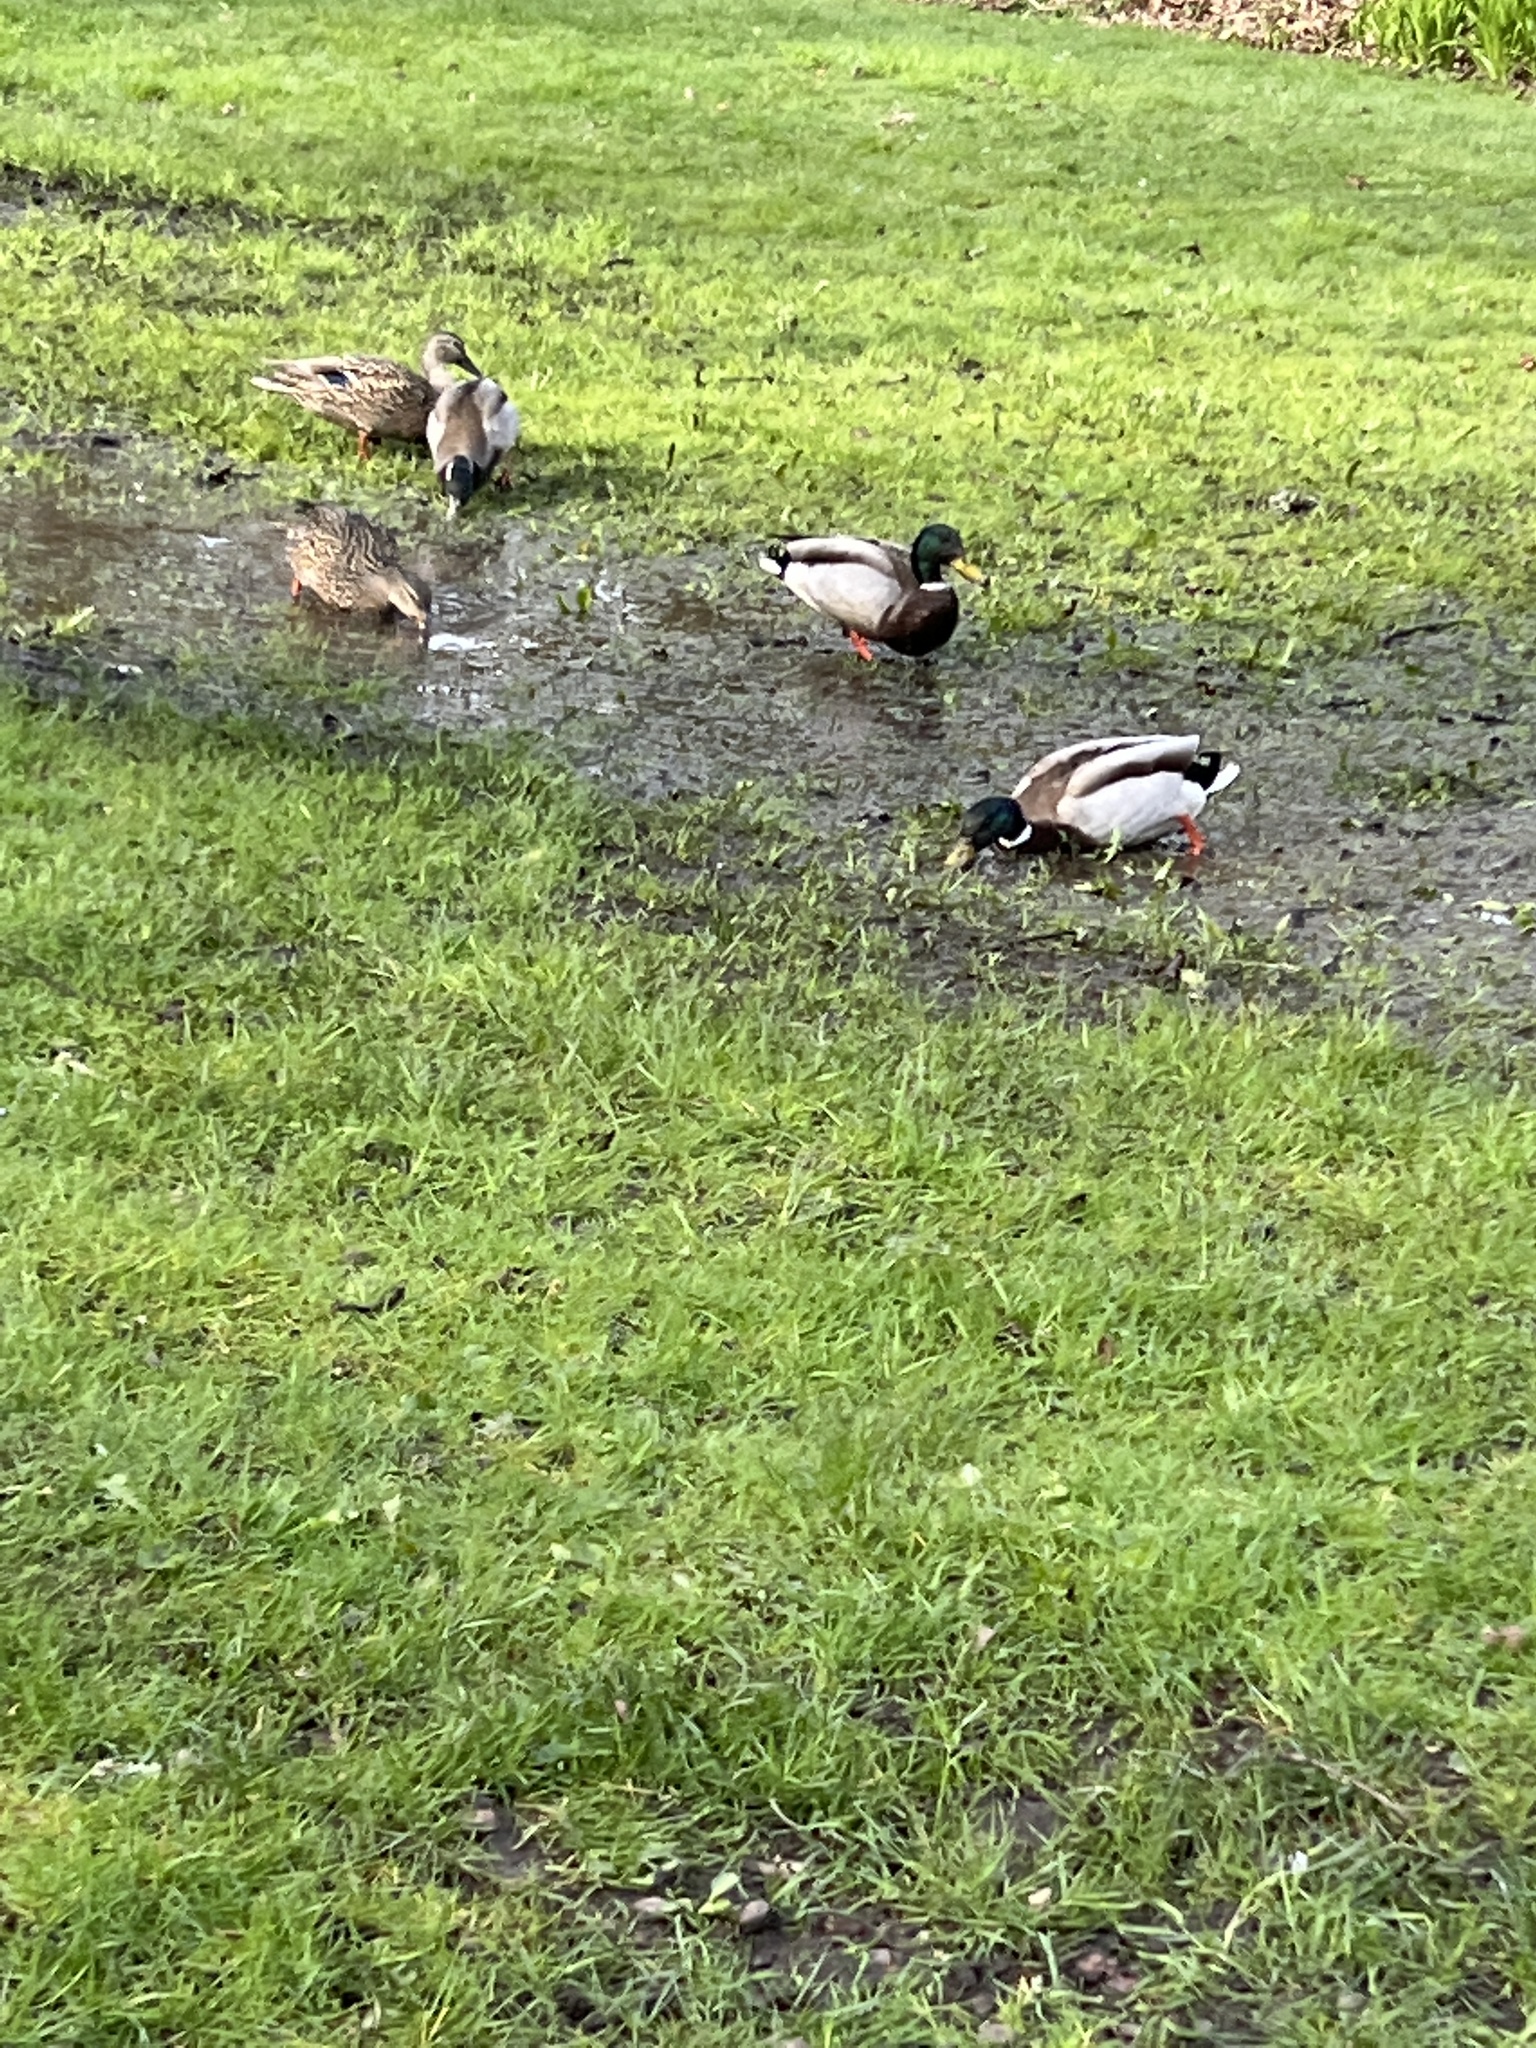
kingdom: Animalia
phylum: Chordata
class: Aves
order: Anseriformes
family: Anatidae
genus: Anas
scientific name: Anas platyrhynchos
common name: Mallard
